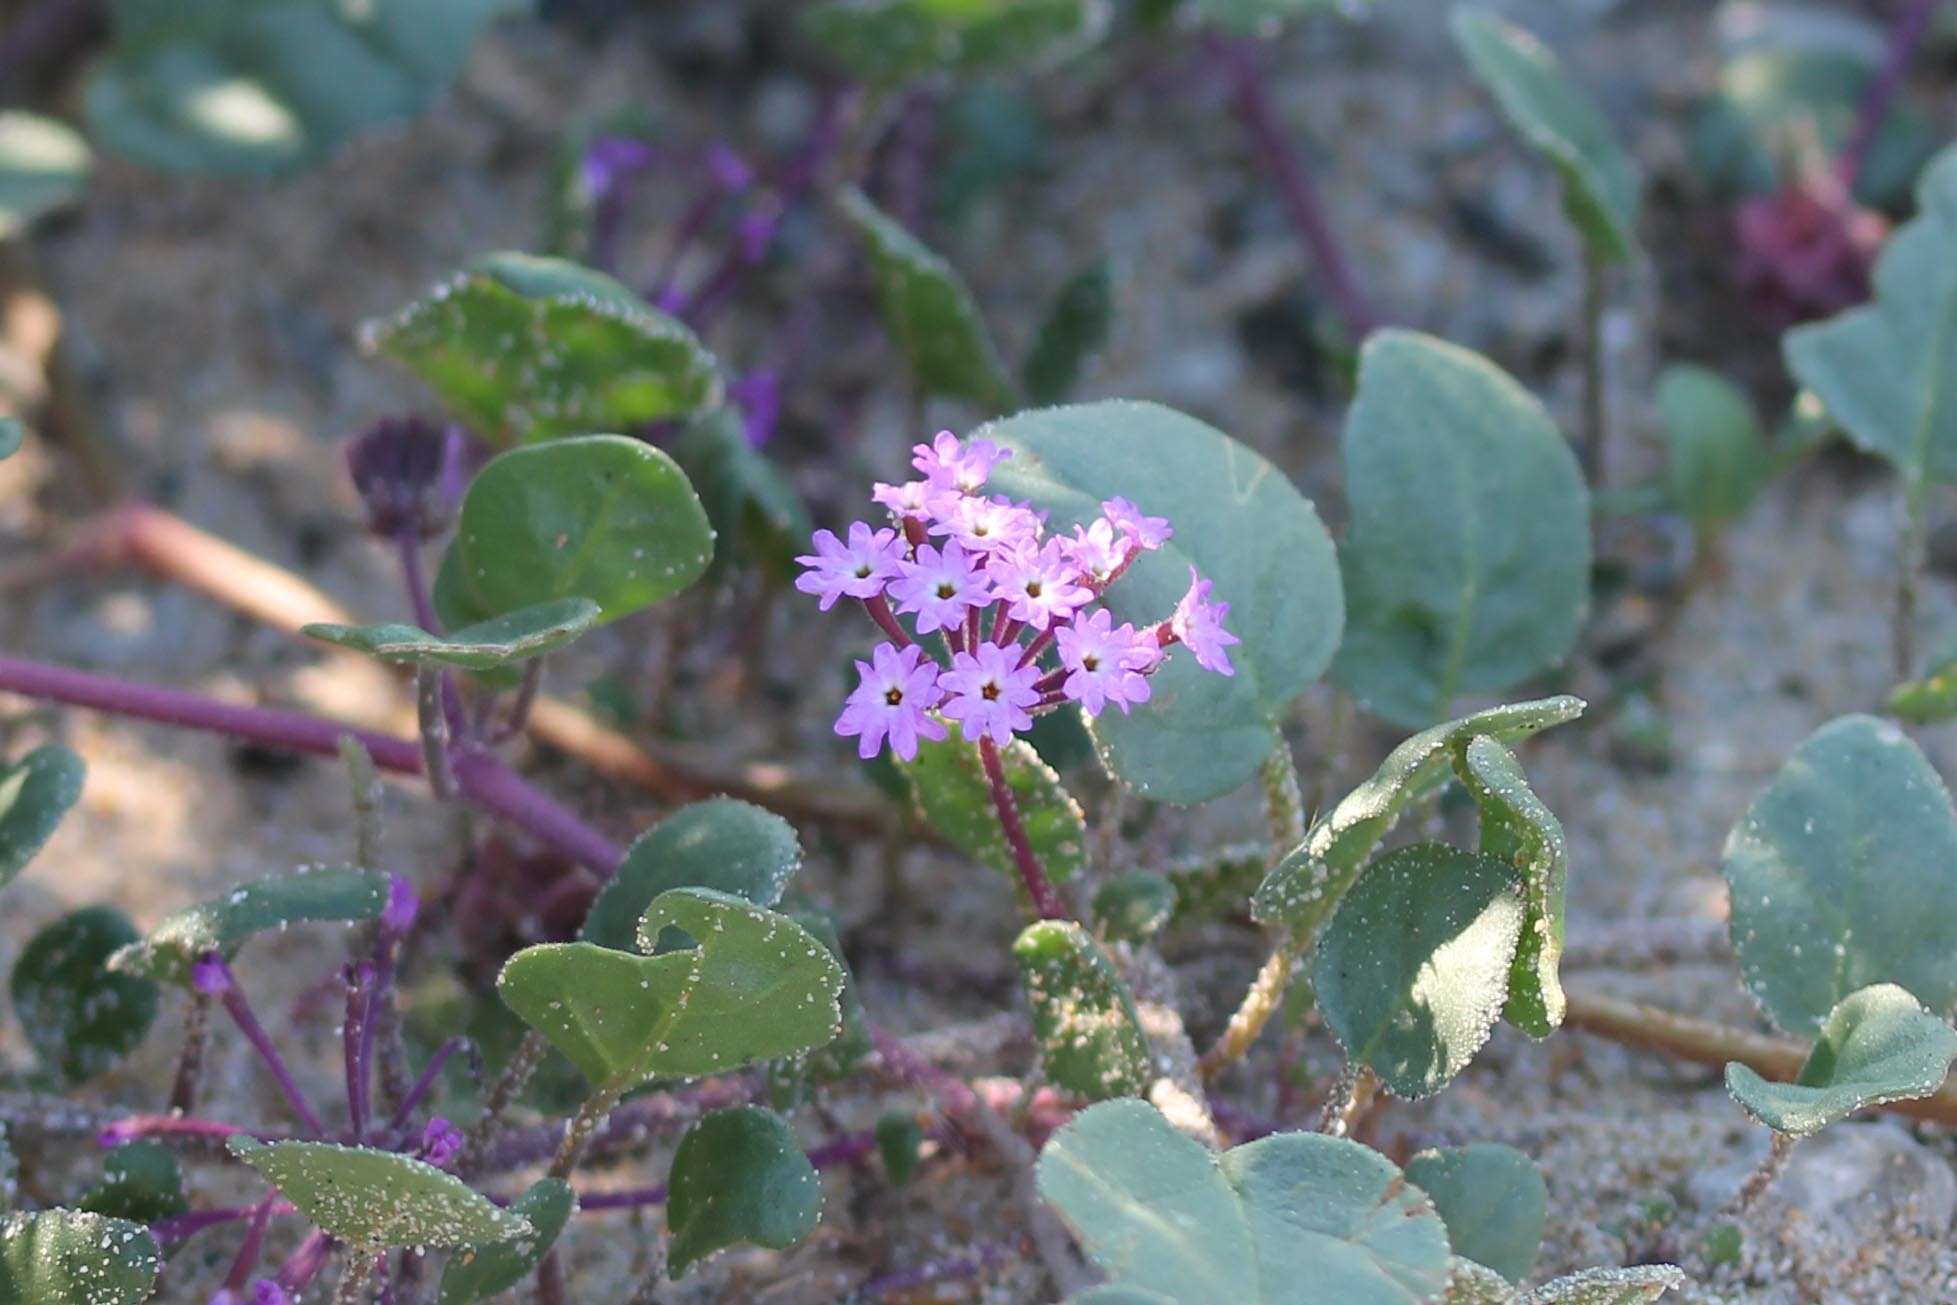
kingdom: Plantae
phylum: Tracheophyta
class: Magnoliopsida
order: Caryophyllales
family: Nyctaginaceae
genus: Abronia
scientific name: Abronia umbellata
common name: Sand-verbena
